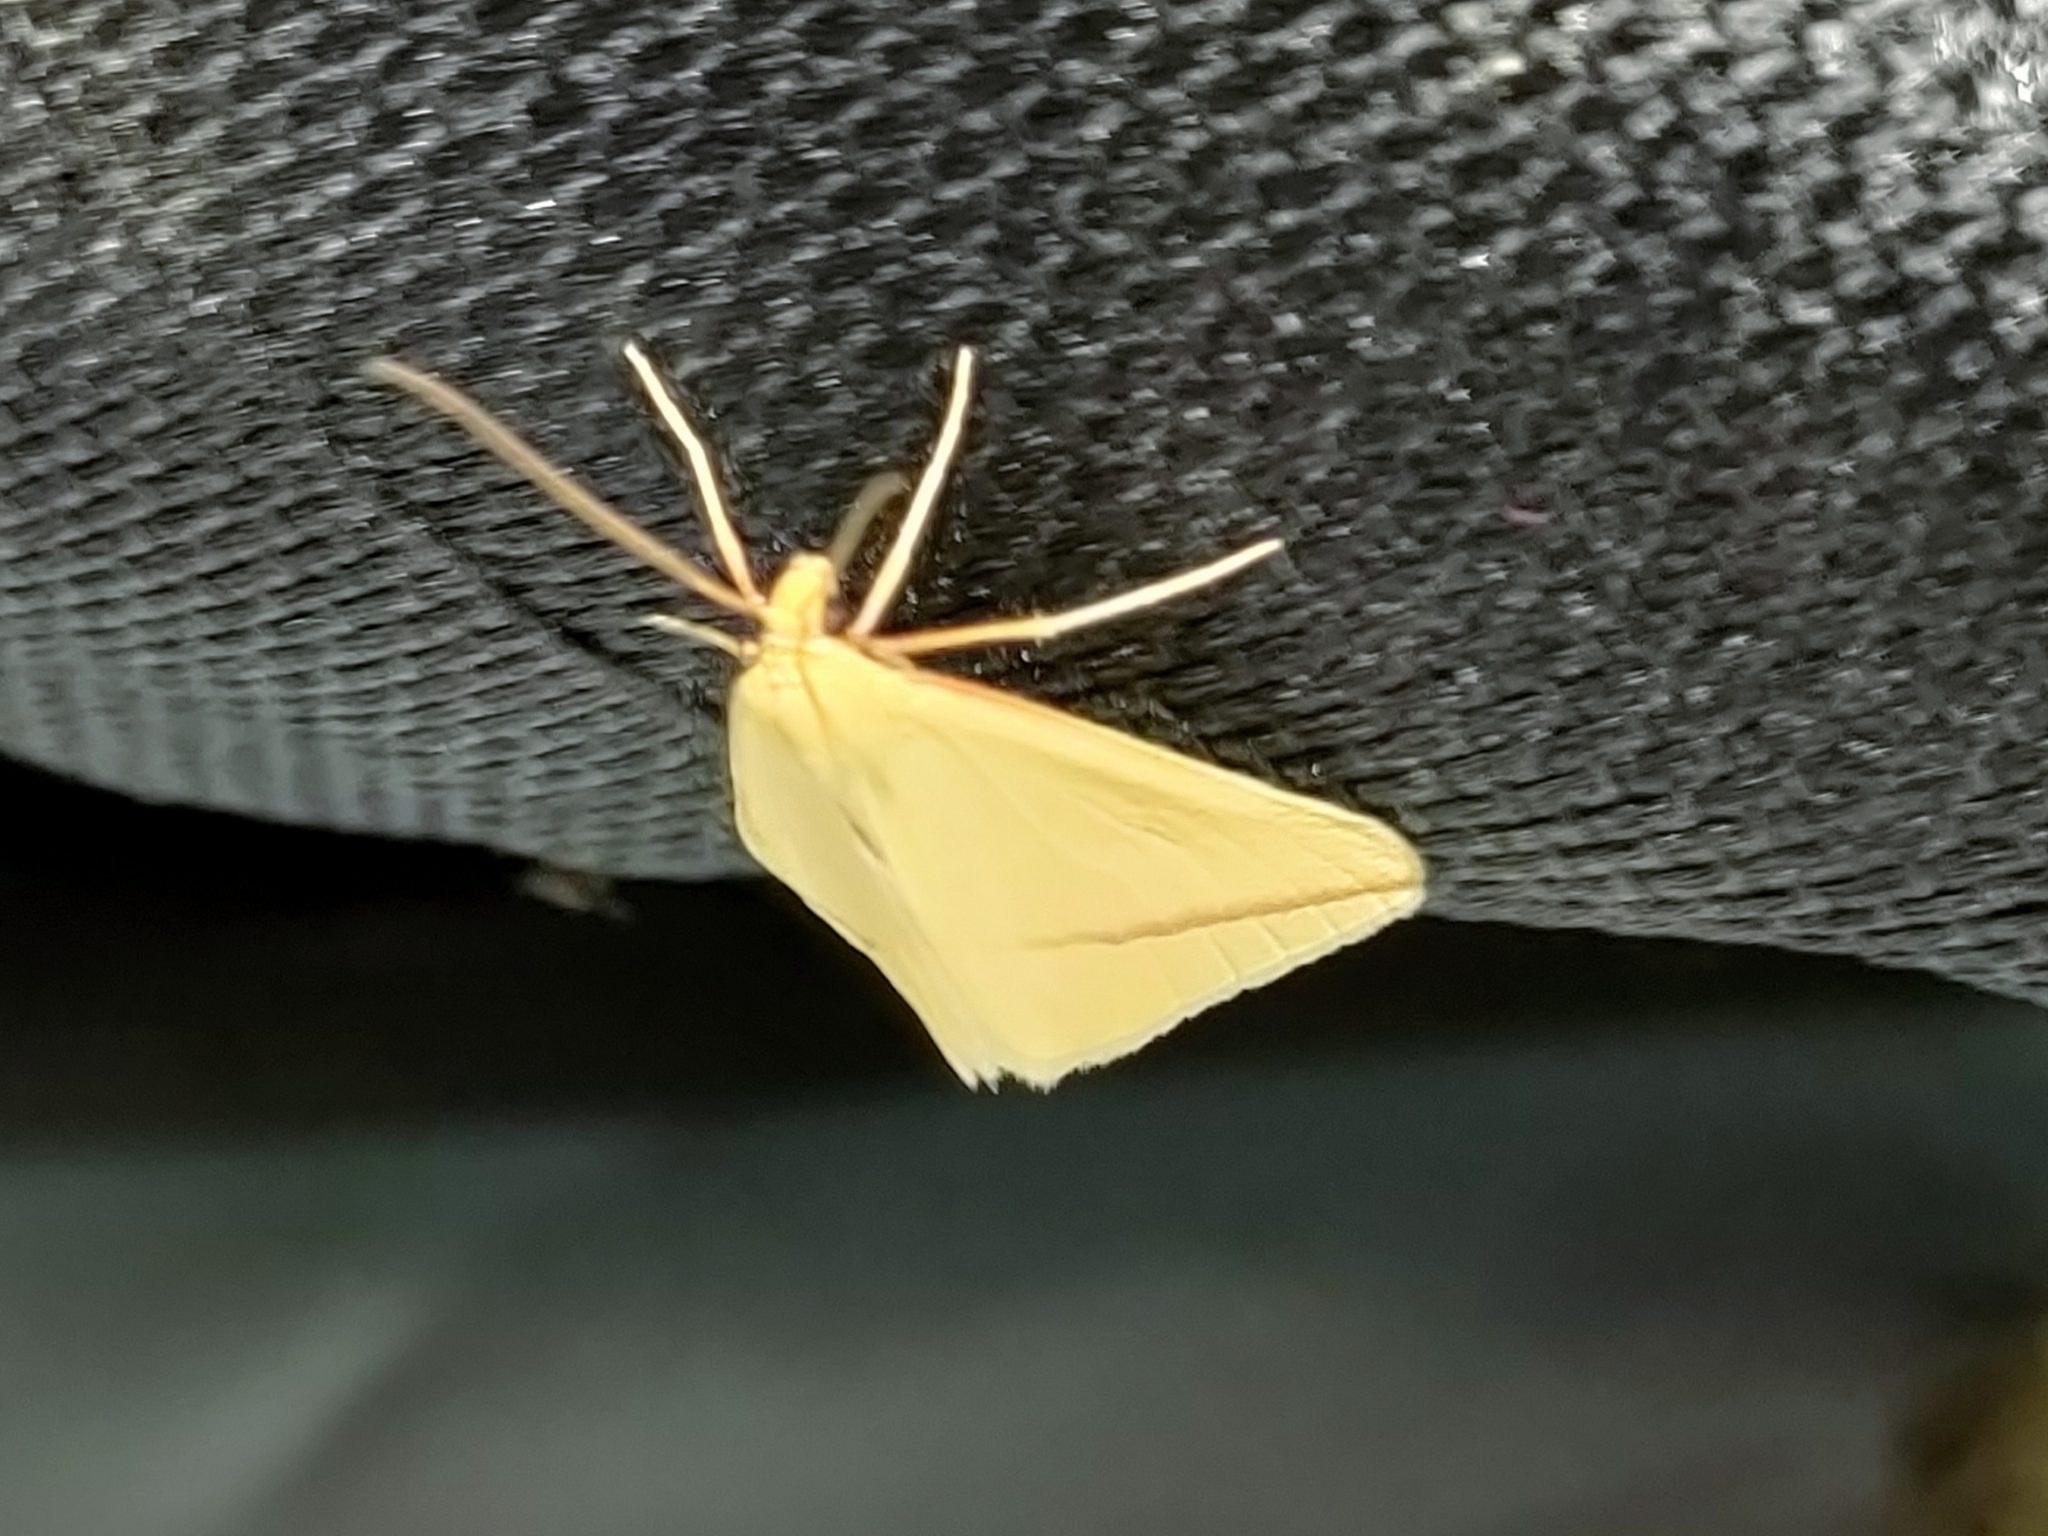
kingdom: Animalia
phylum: Arthropoda
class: Insecta
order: Lepidoptera
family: Geometridae
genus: Rhodometra
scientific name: Rhodometra sacraria
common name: Vestal
